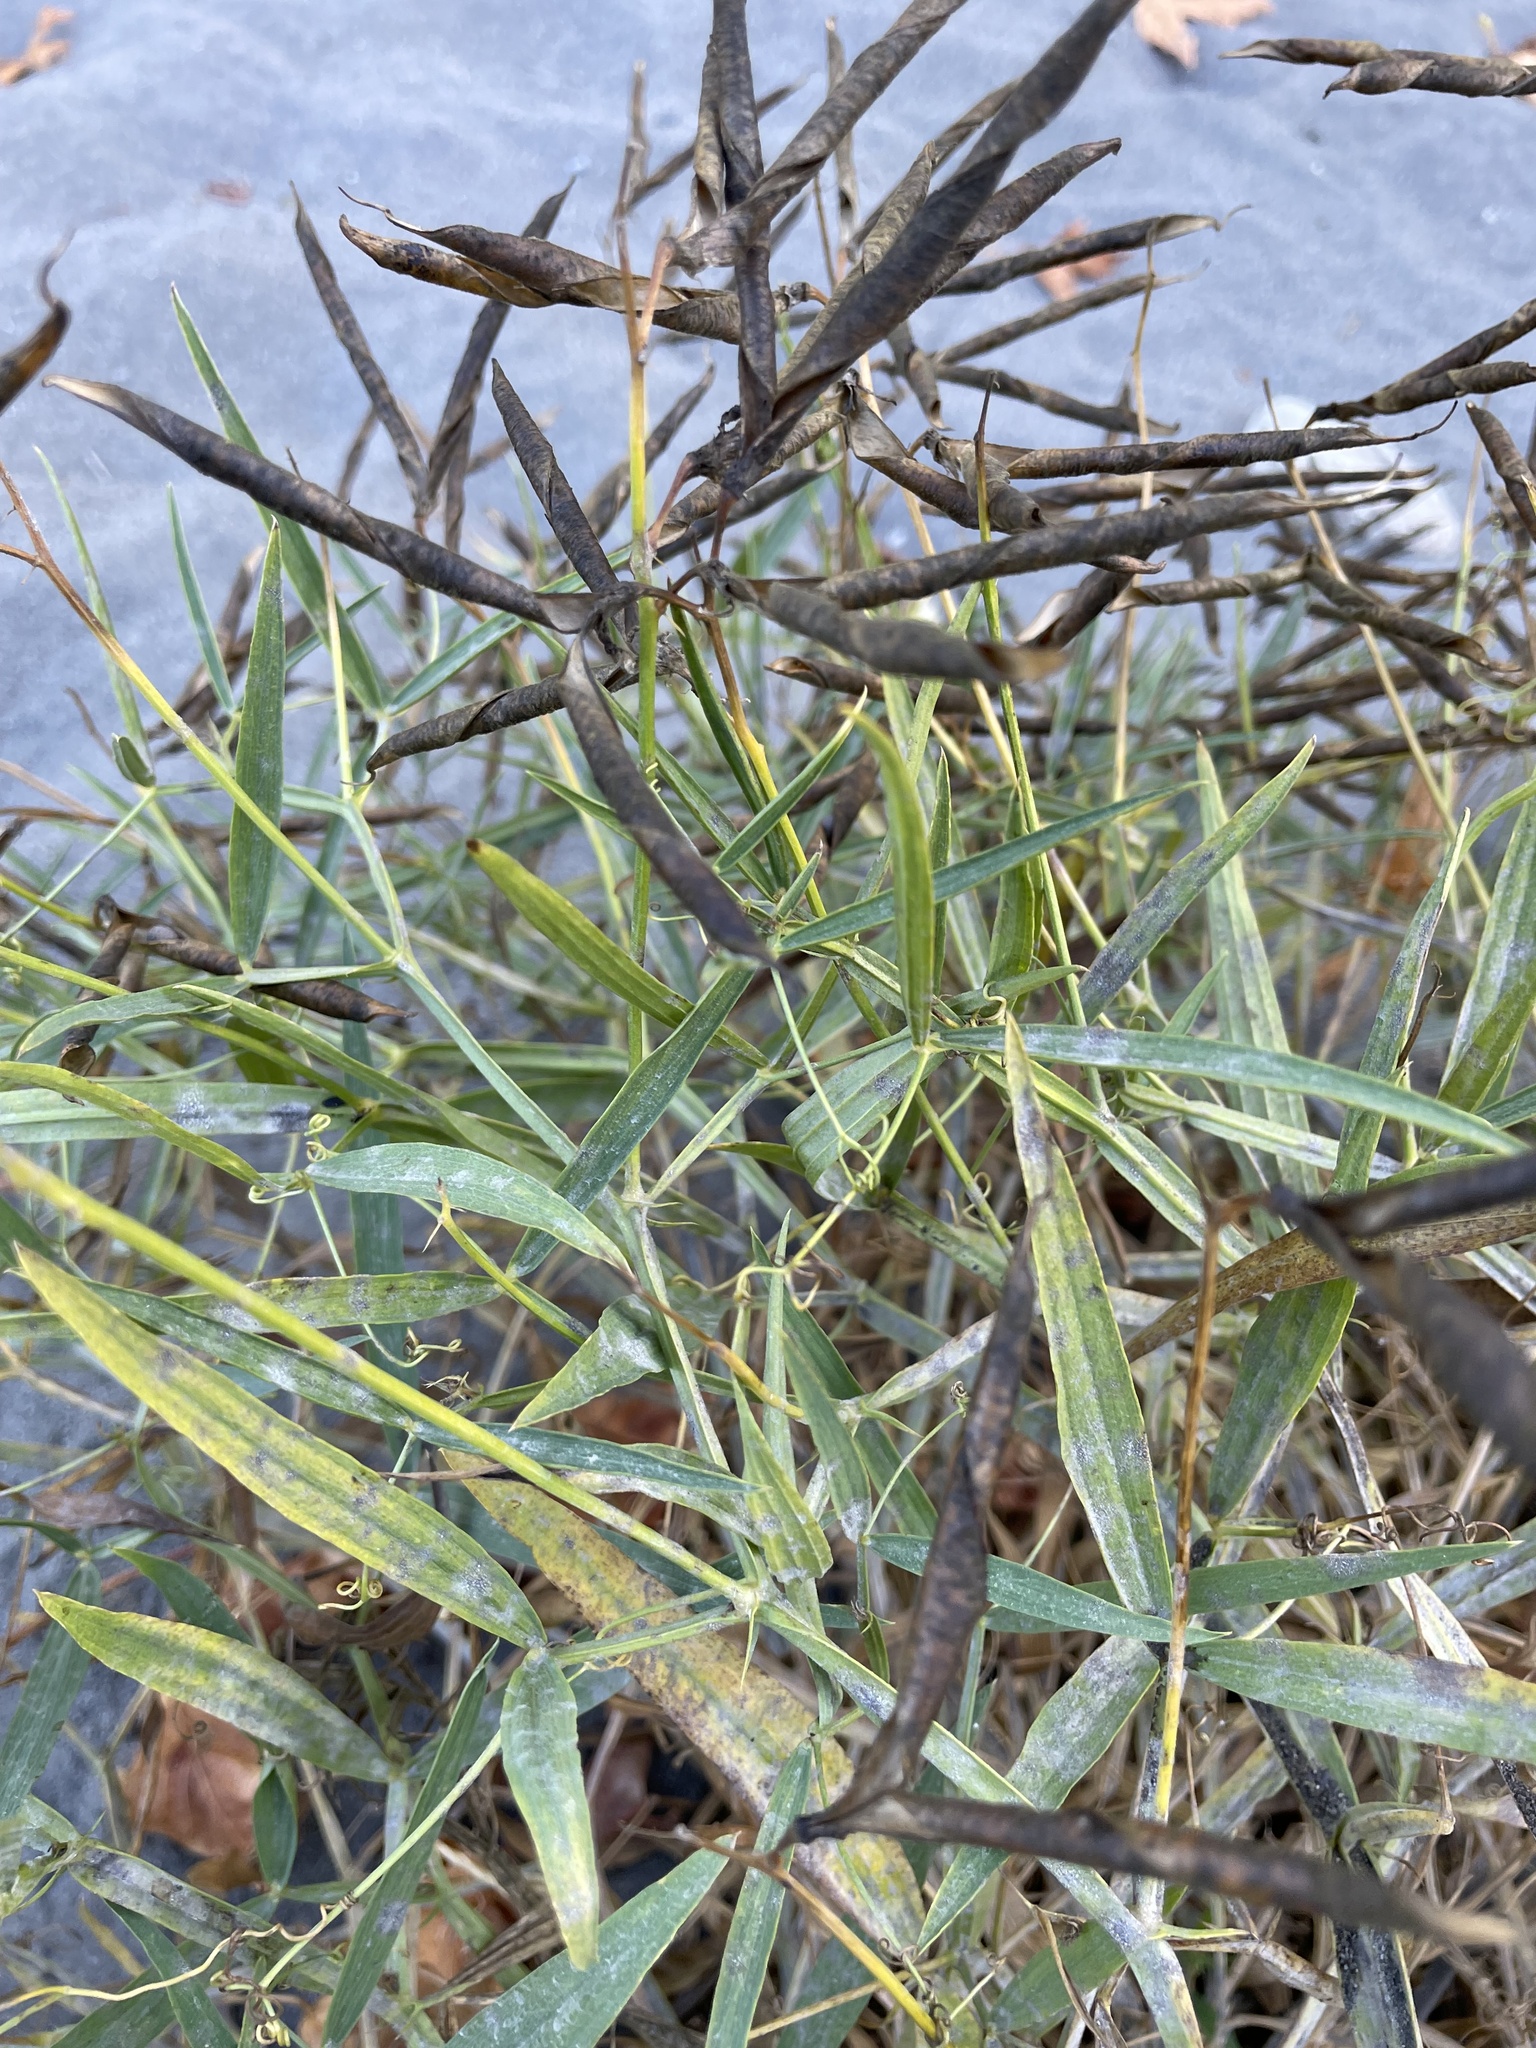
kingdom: Plantae
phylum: Tracheophyta
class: Magnoliopsida
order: Fabales
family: Fabaceae
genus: Lathyrus
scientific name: Lathyrus sylvestris
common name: Flat pea
